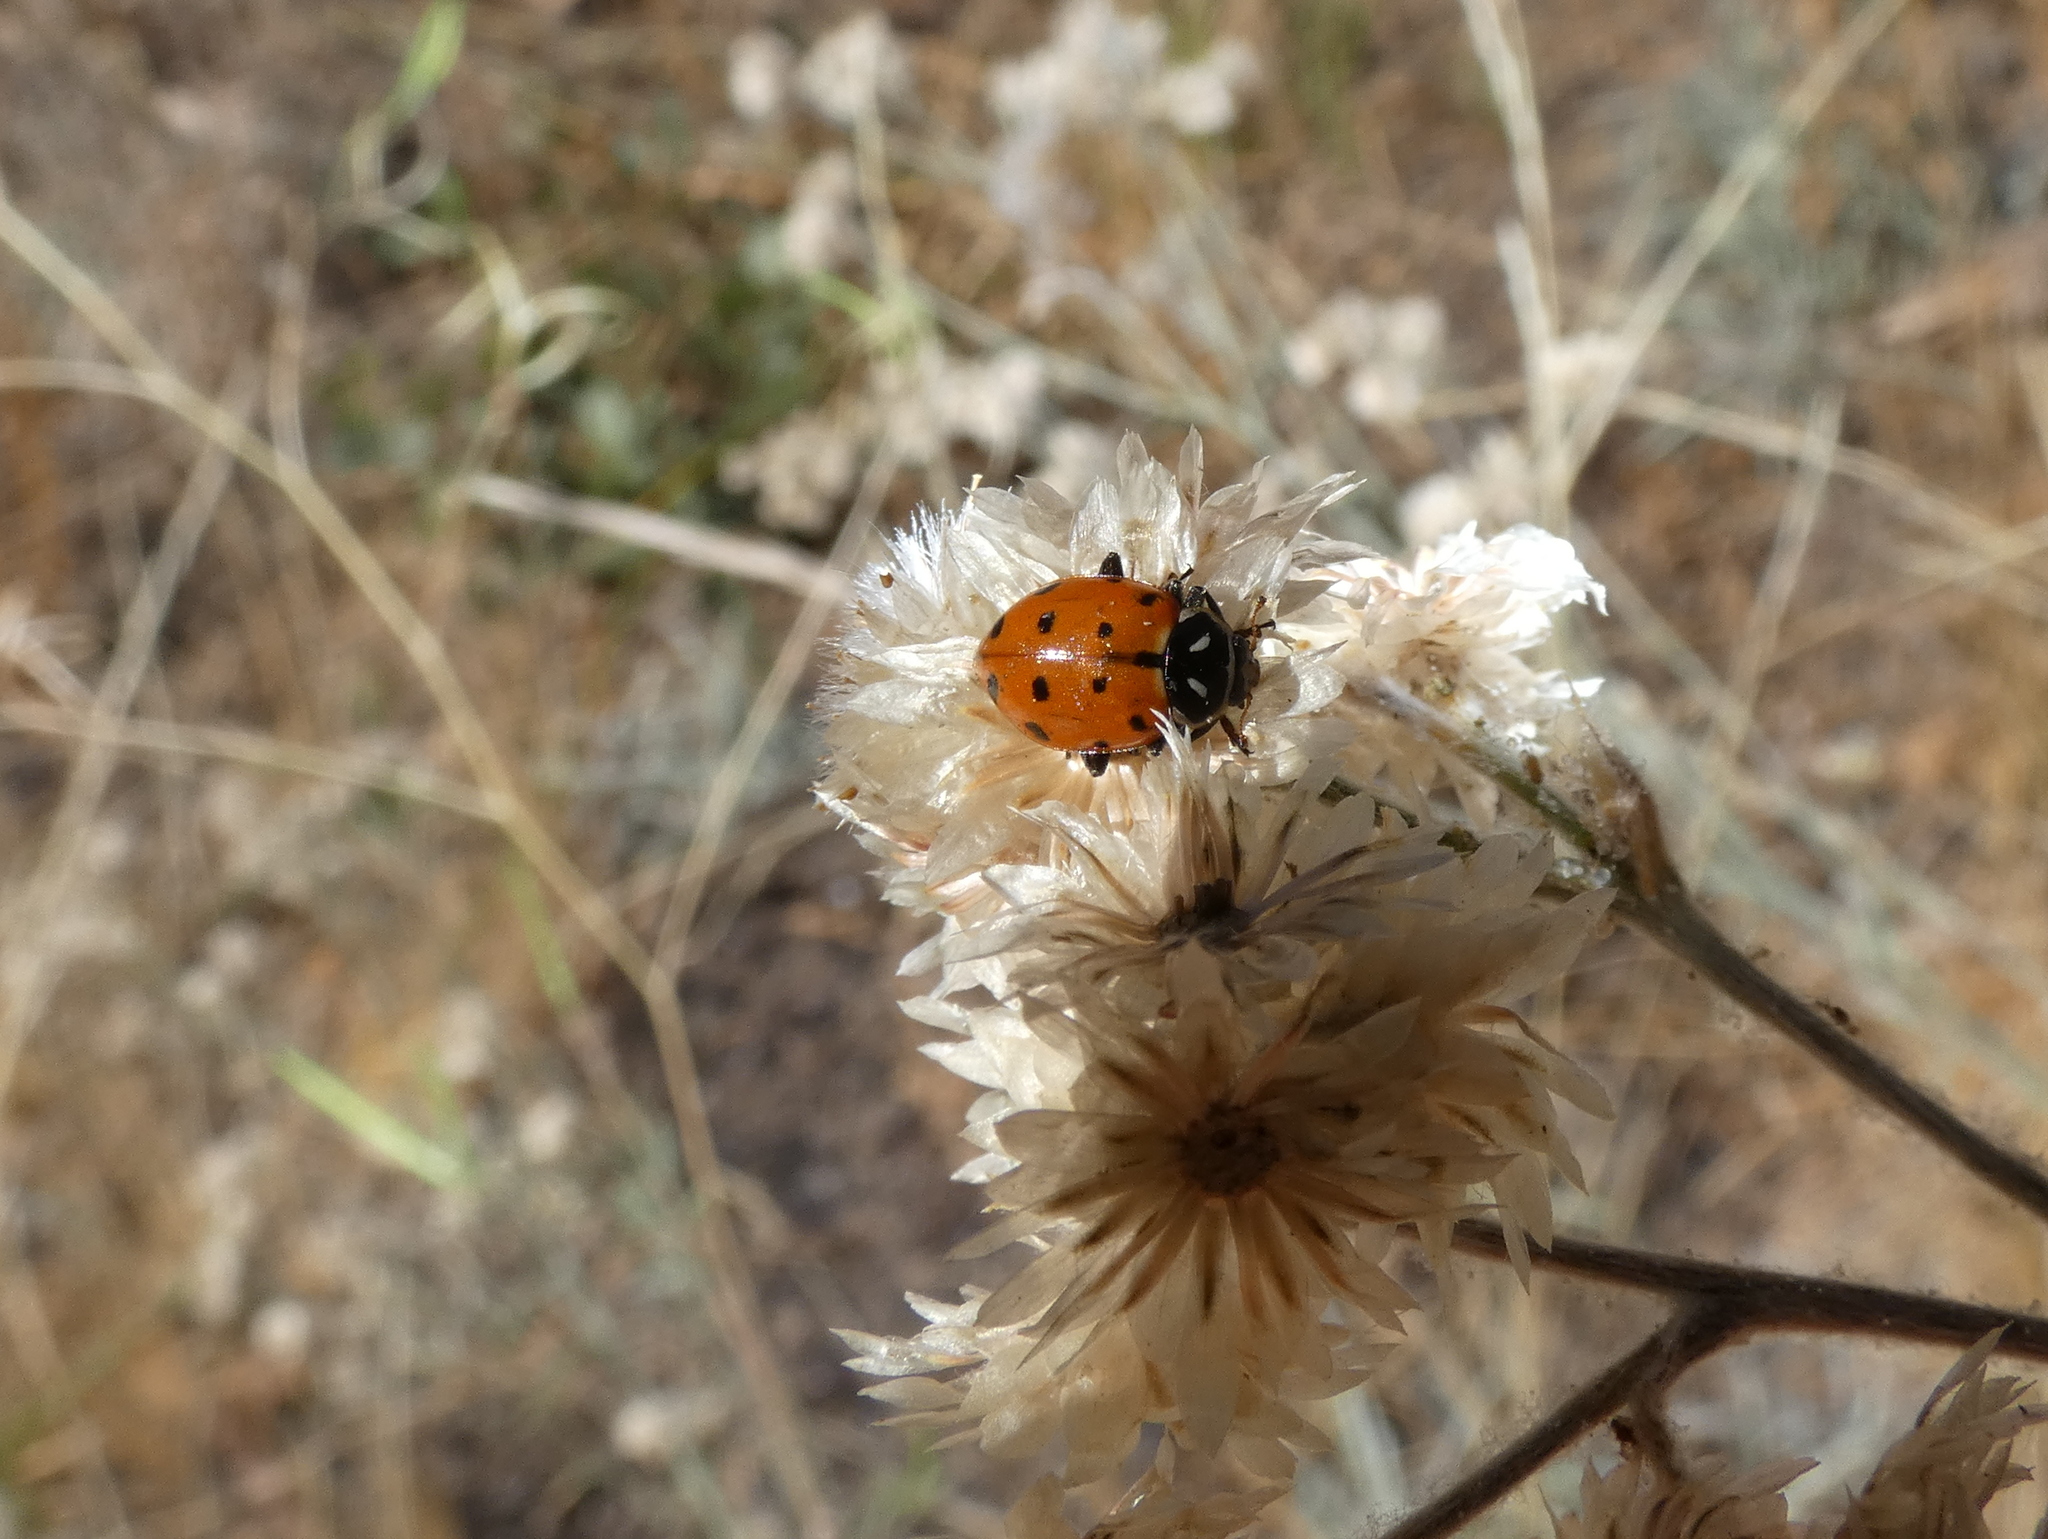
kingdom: Animalia
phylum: Arthropoda
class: Insecta
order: Coleoptera
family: Coccinellidae
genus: Hippodamia
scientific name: Hippodamia convergens
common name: Convergent lady beetle
